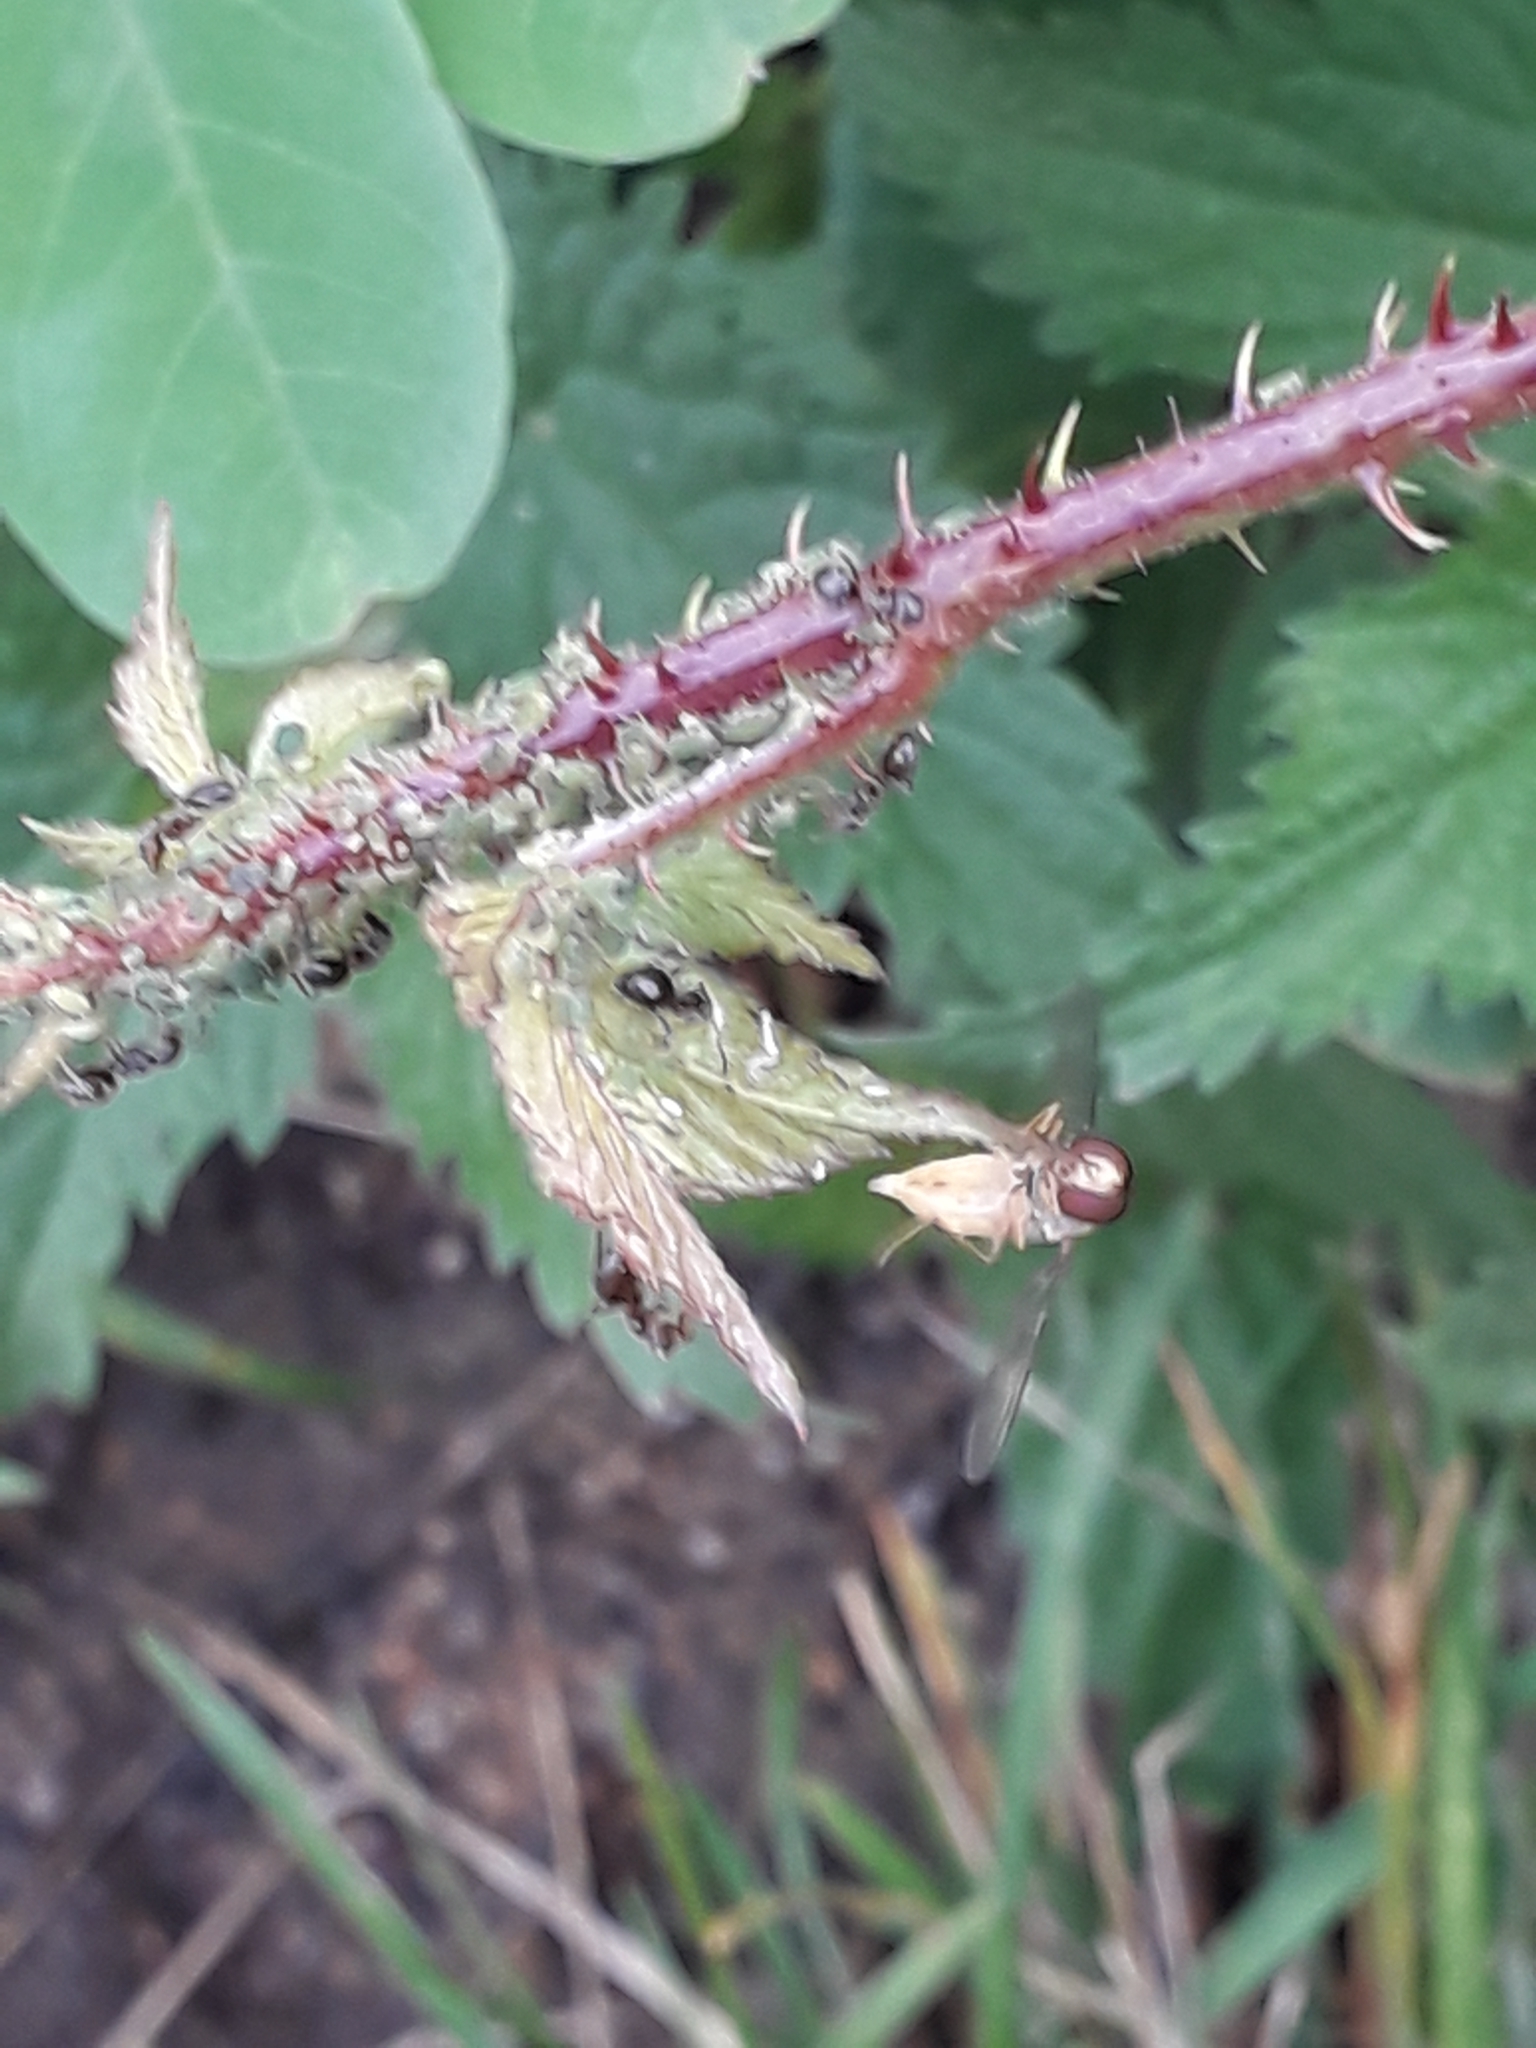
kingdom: Animalia
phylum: Arthropoda
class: Insecta
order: Diptera
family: Syrphidae
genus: Episyrphus
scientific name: Episyrphus balteatus
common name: Marmalade hoverfly
